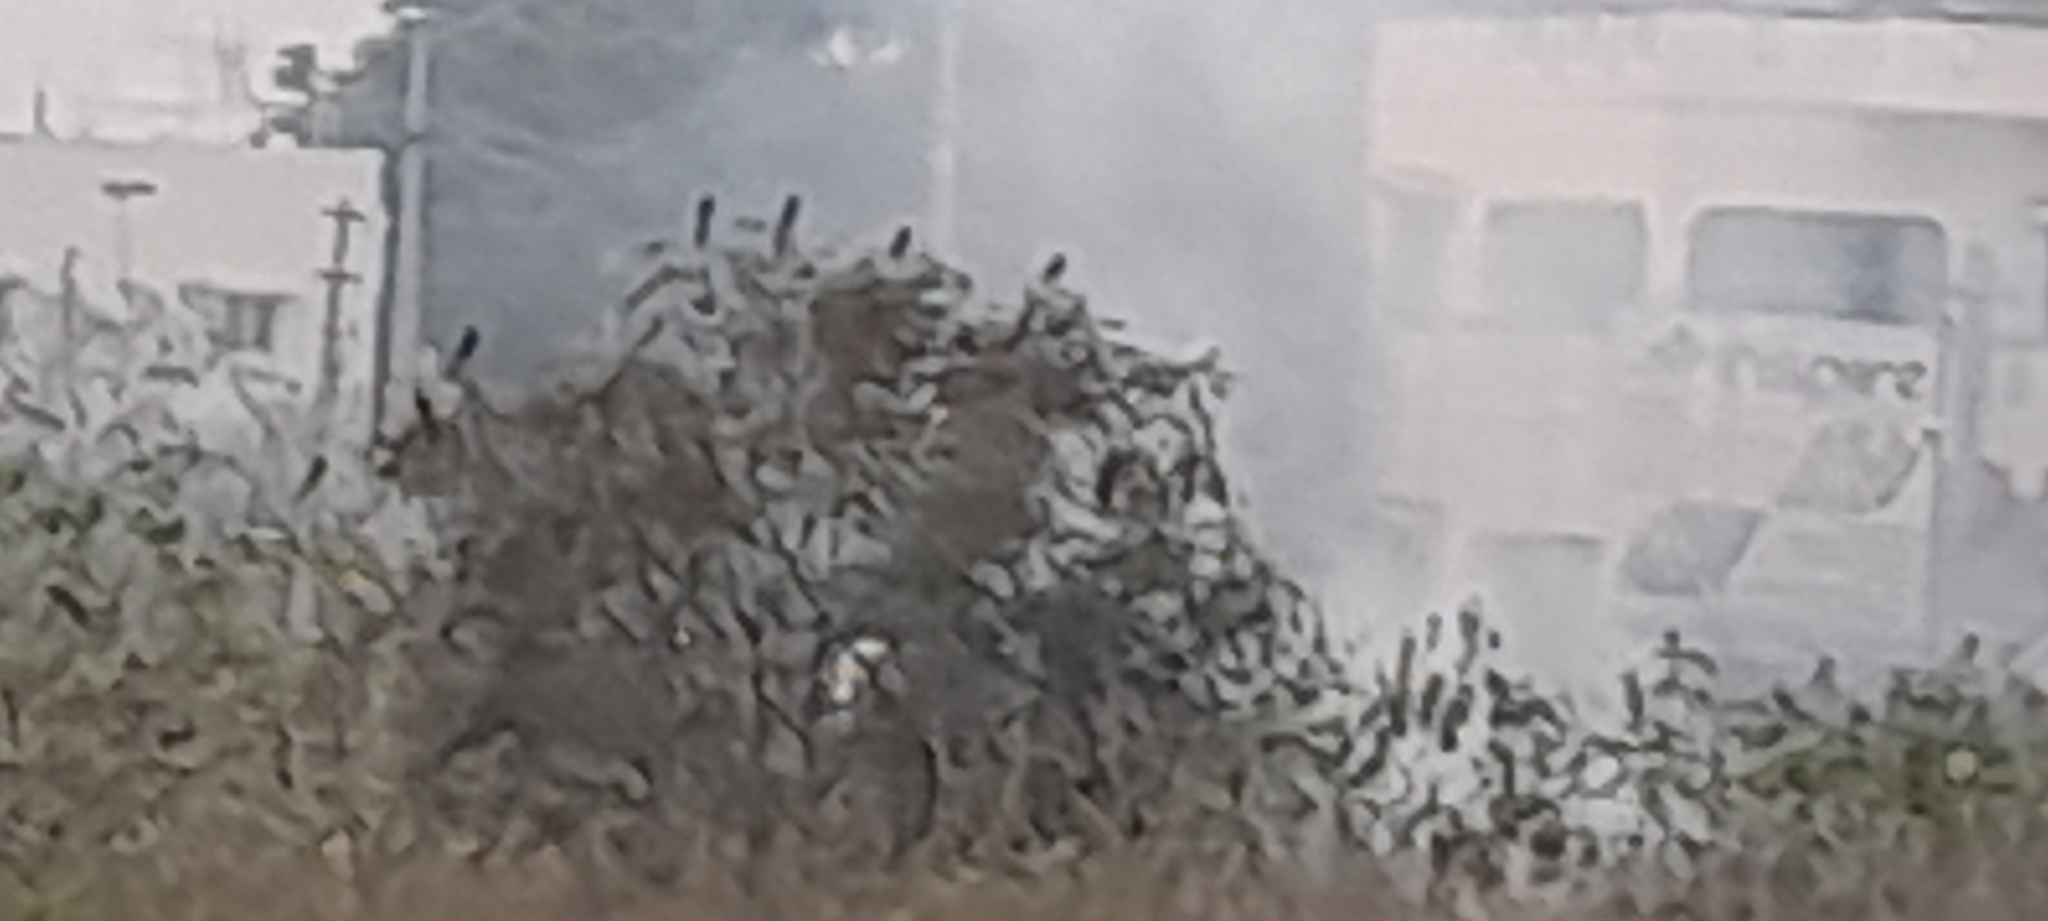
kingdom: Animalia
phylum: Chordata
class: Aves
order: Passeriformes
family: Dicruridae
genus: Dicrurus
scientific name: Dicrurus macrocercus
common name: Black drongo
